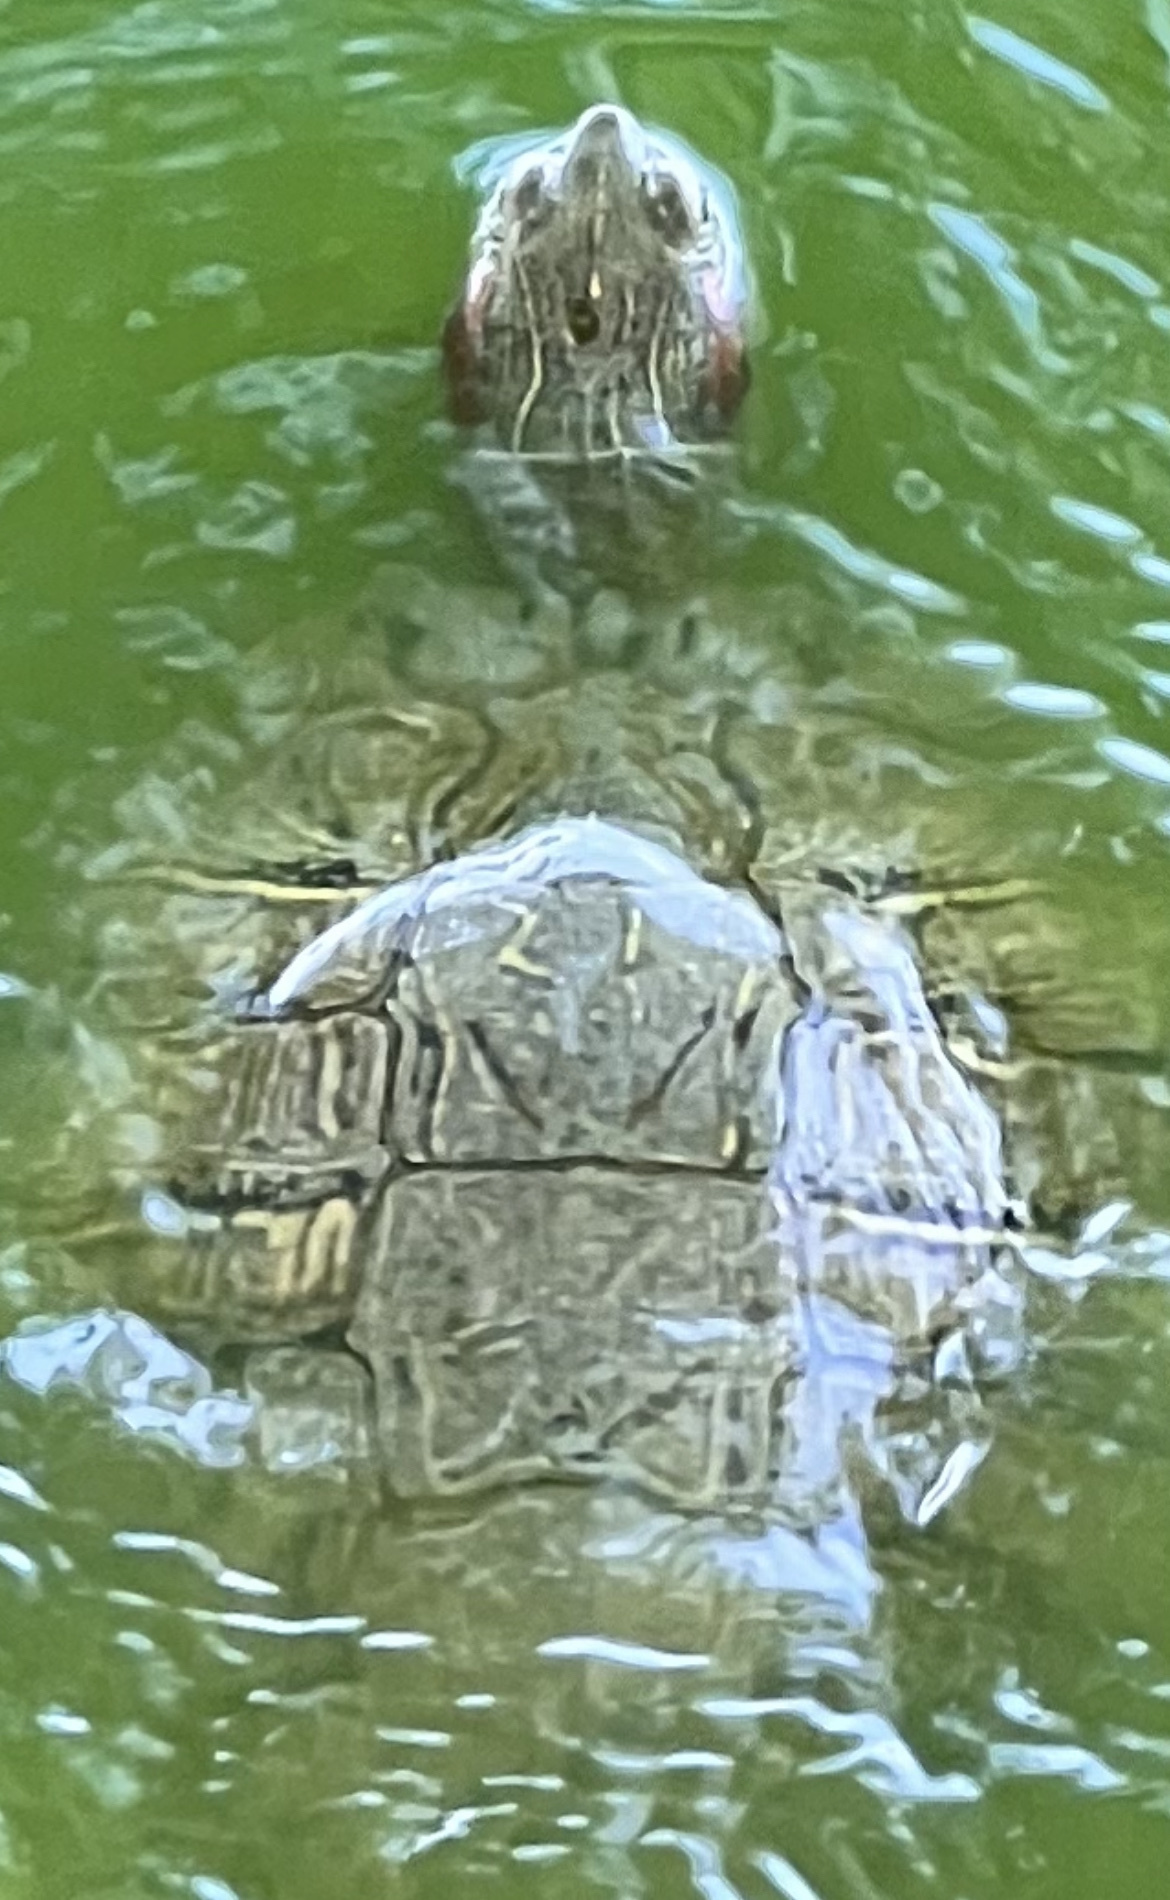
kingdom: Animalia
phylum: Chordata
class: Testudines
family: Emydidae
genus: Trachemys
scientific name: Trachemys scripta
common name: Slider
